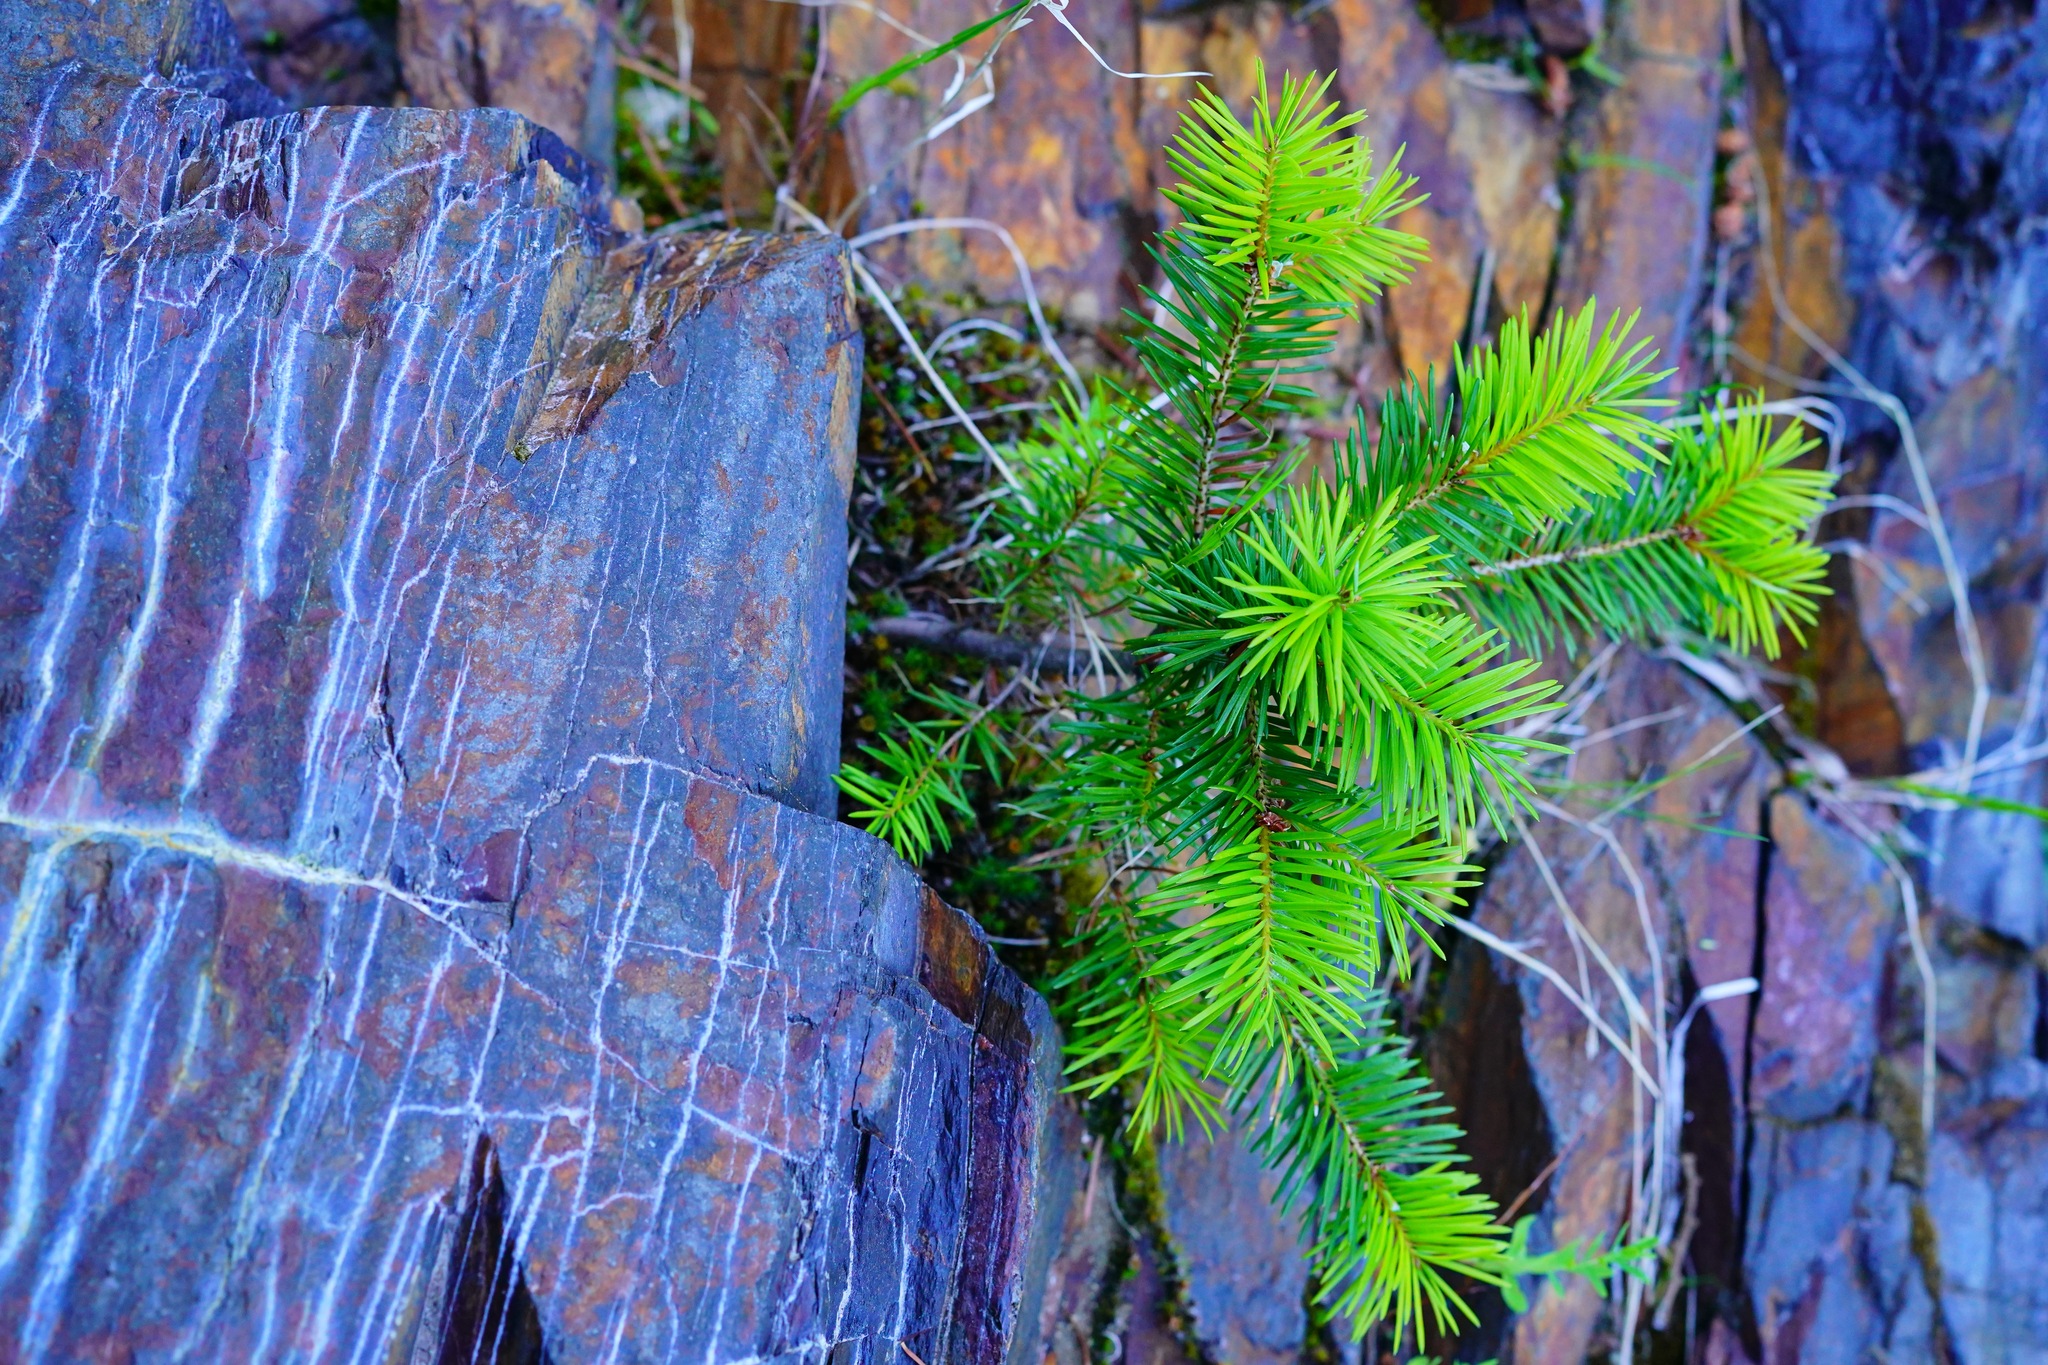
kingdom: Plantae
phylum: Tracheophyta
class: Pinopsida
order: Pinales
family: Pinaceae
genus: Pseudotsuga
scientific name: Pseudotsuga menziesii
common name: Douglas fir
